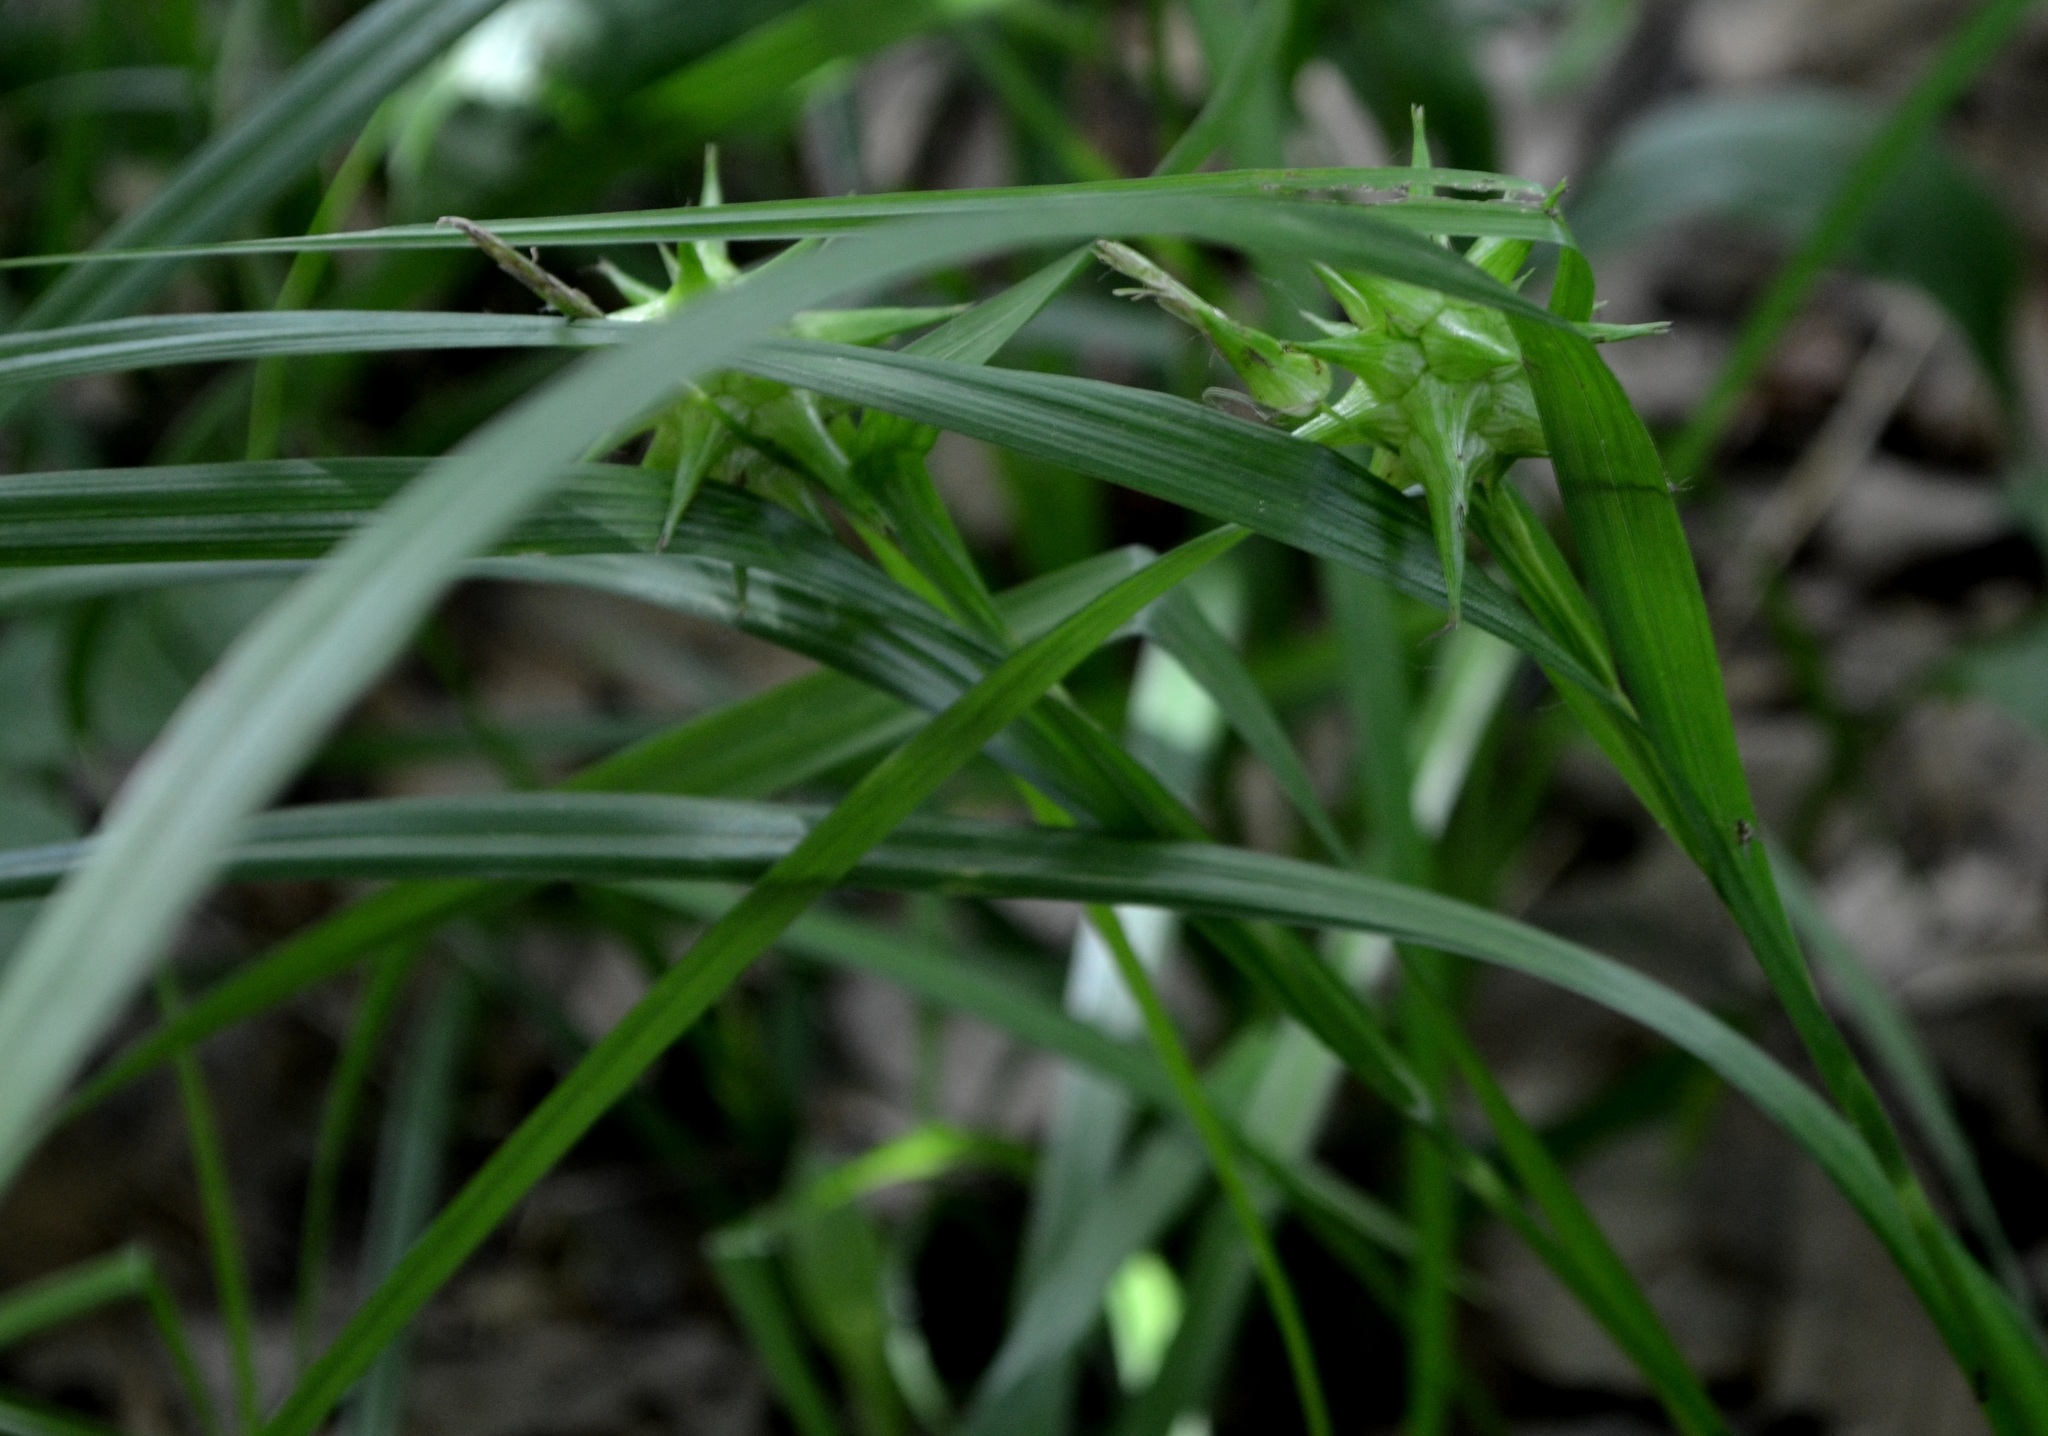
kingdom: Plantae
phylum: Tracheophyta
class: Liliopsida
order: Poales
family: Cyperaceae
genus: Carex
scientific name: Carex grayi
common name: Asa gray's sedge
